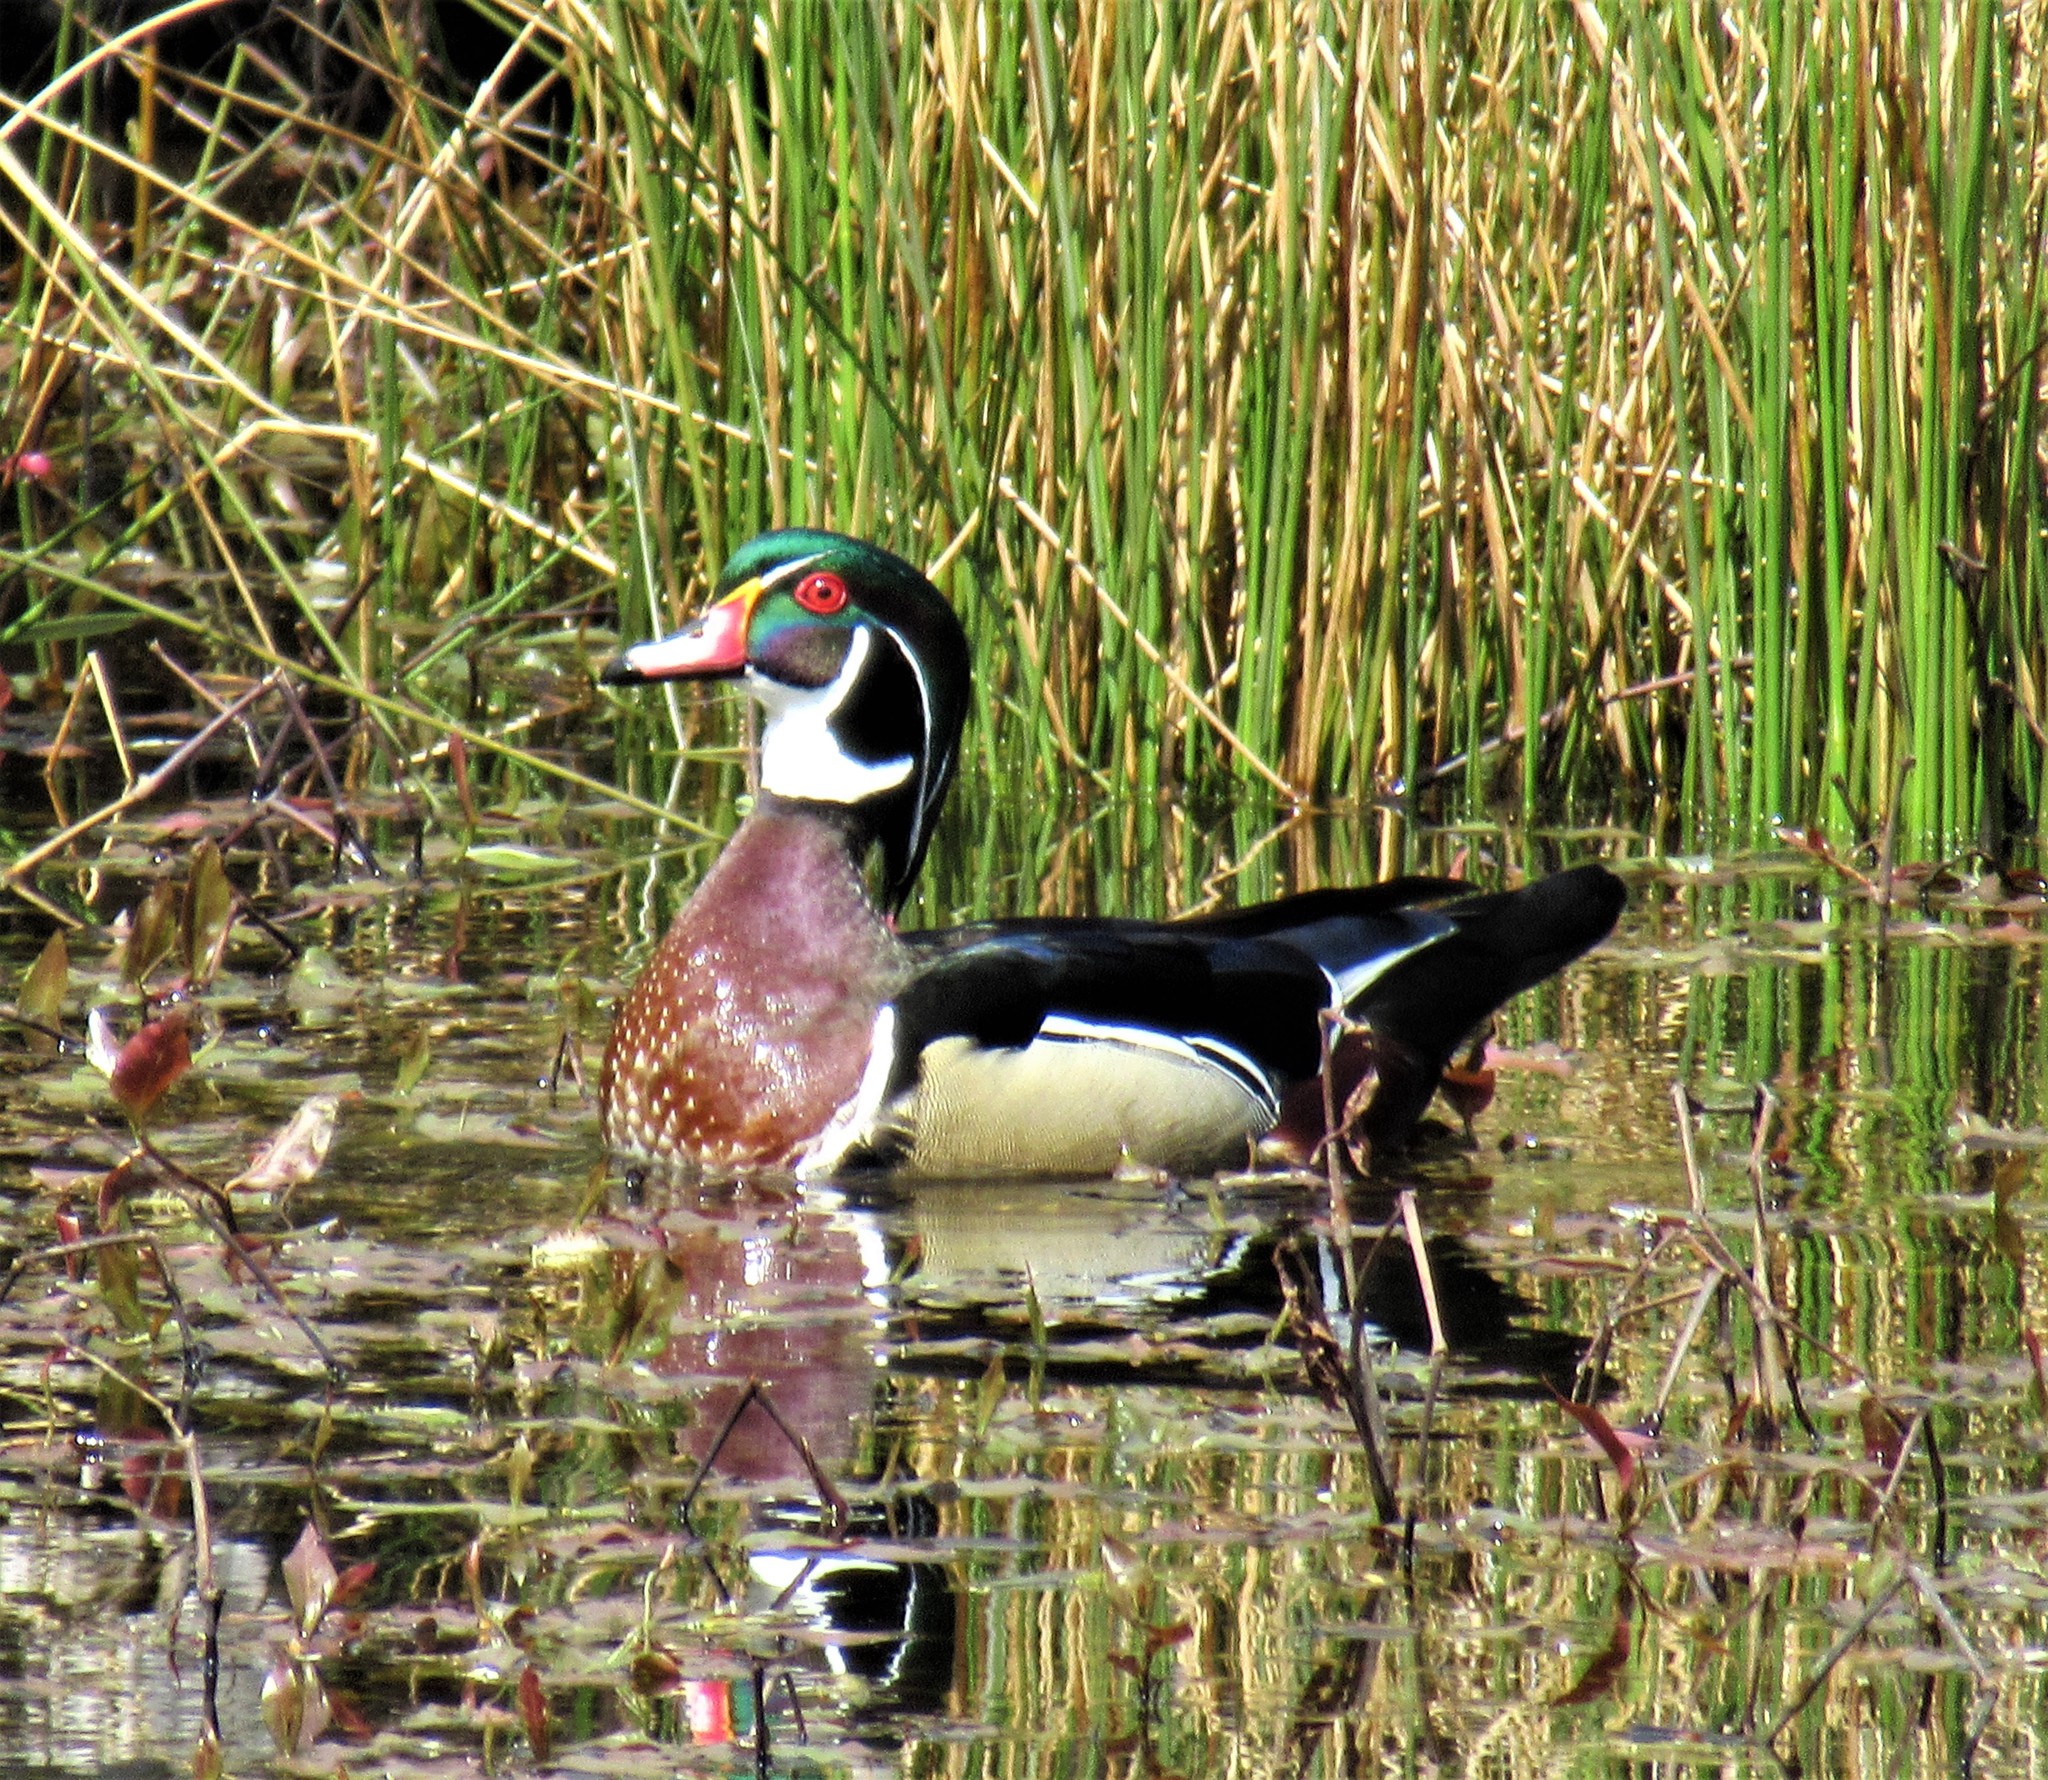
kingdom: Animalia
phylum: Chordata
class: Aves
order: Anseriformes
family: Anatidae
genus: Aix
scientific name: Aix sponsa
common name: Wood duck
